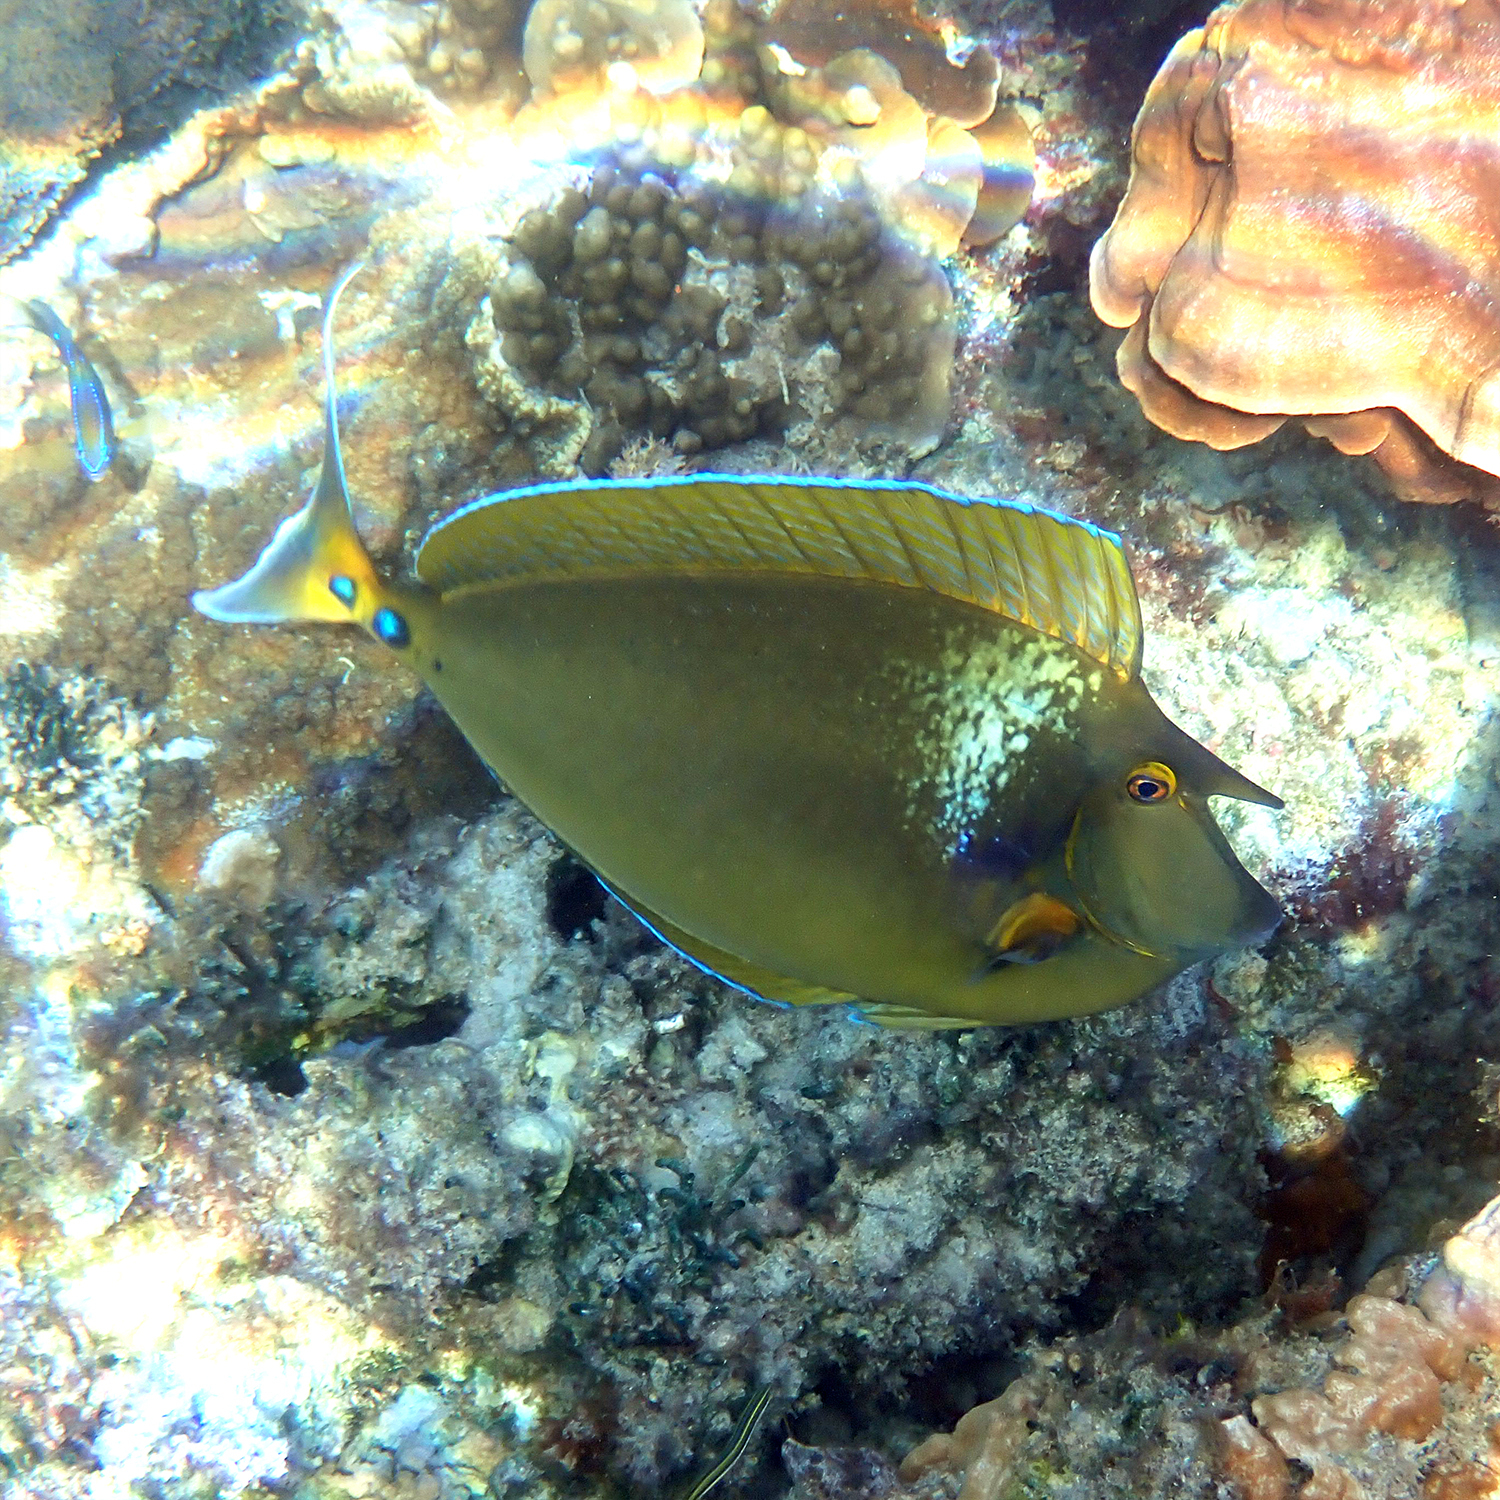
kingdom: Animalia
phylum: Chordata
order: Perciformes
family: Acanthuridae
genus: Naso
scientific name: Naso unicornis
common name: Bluespine unicornfish
